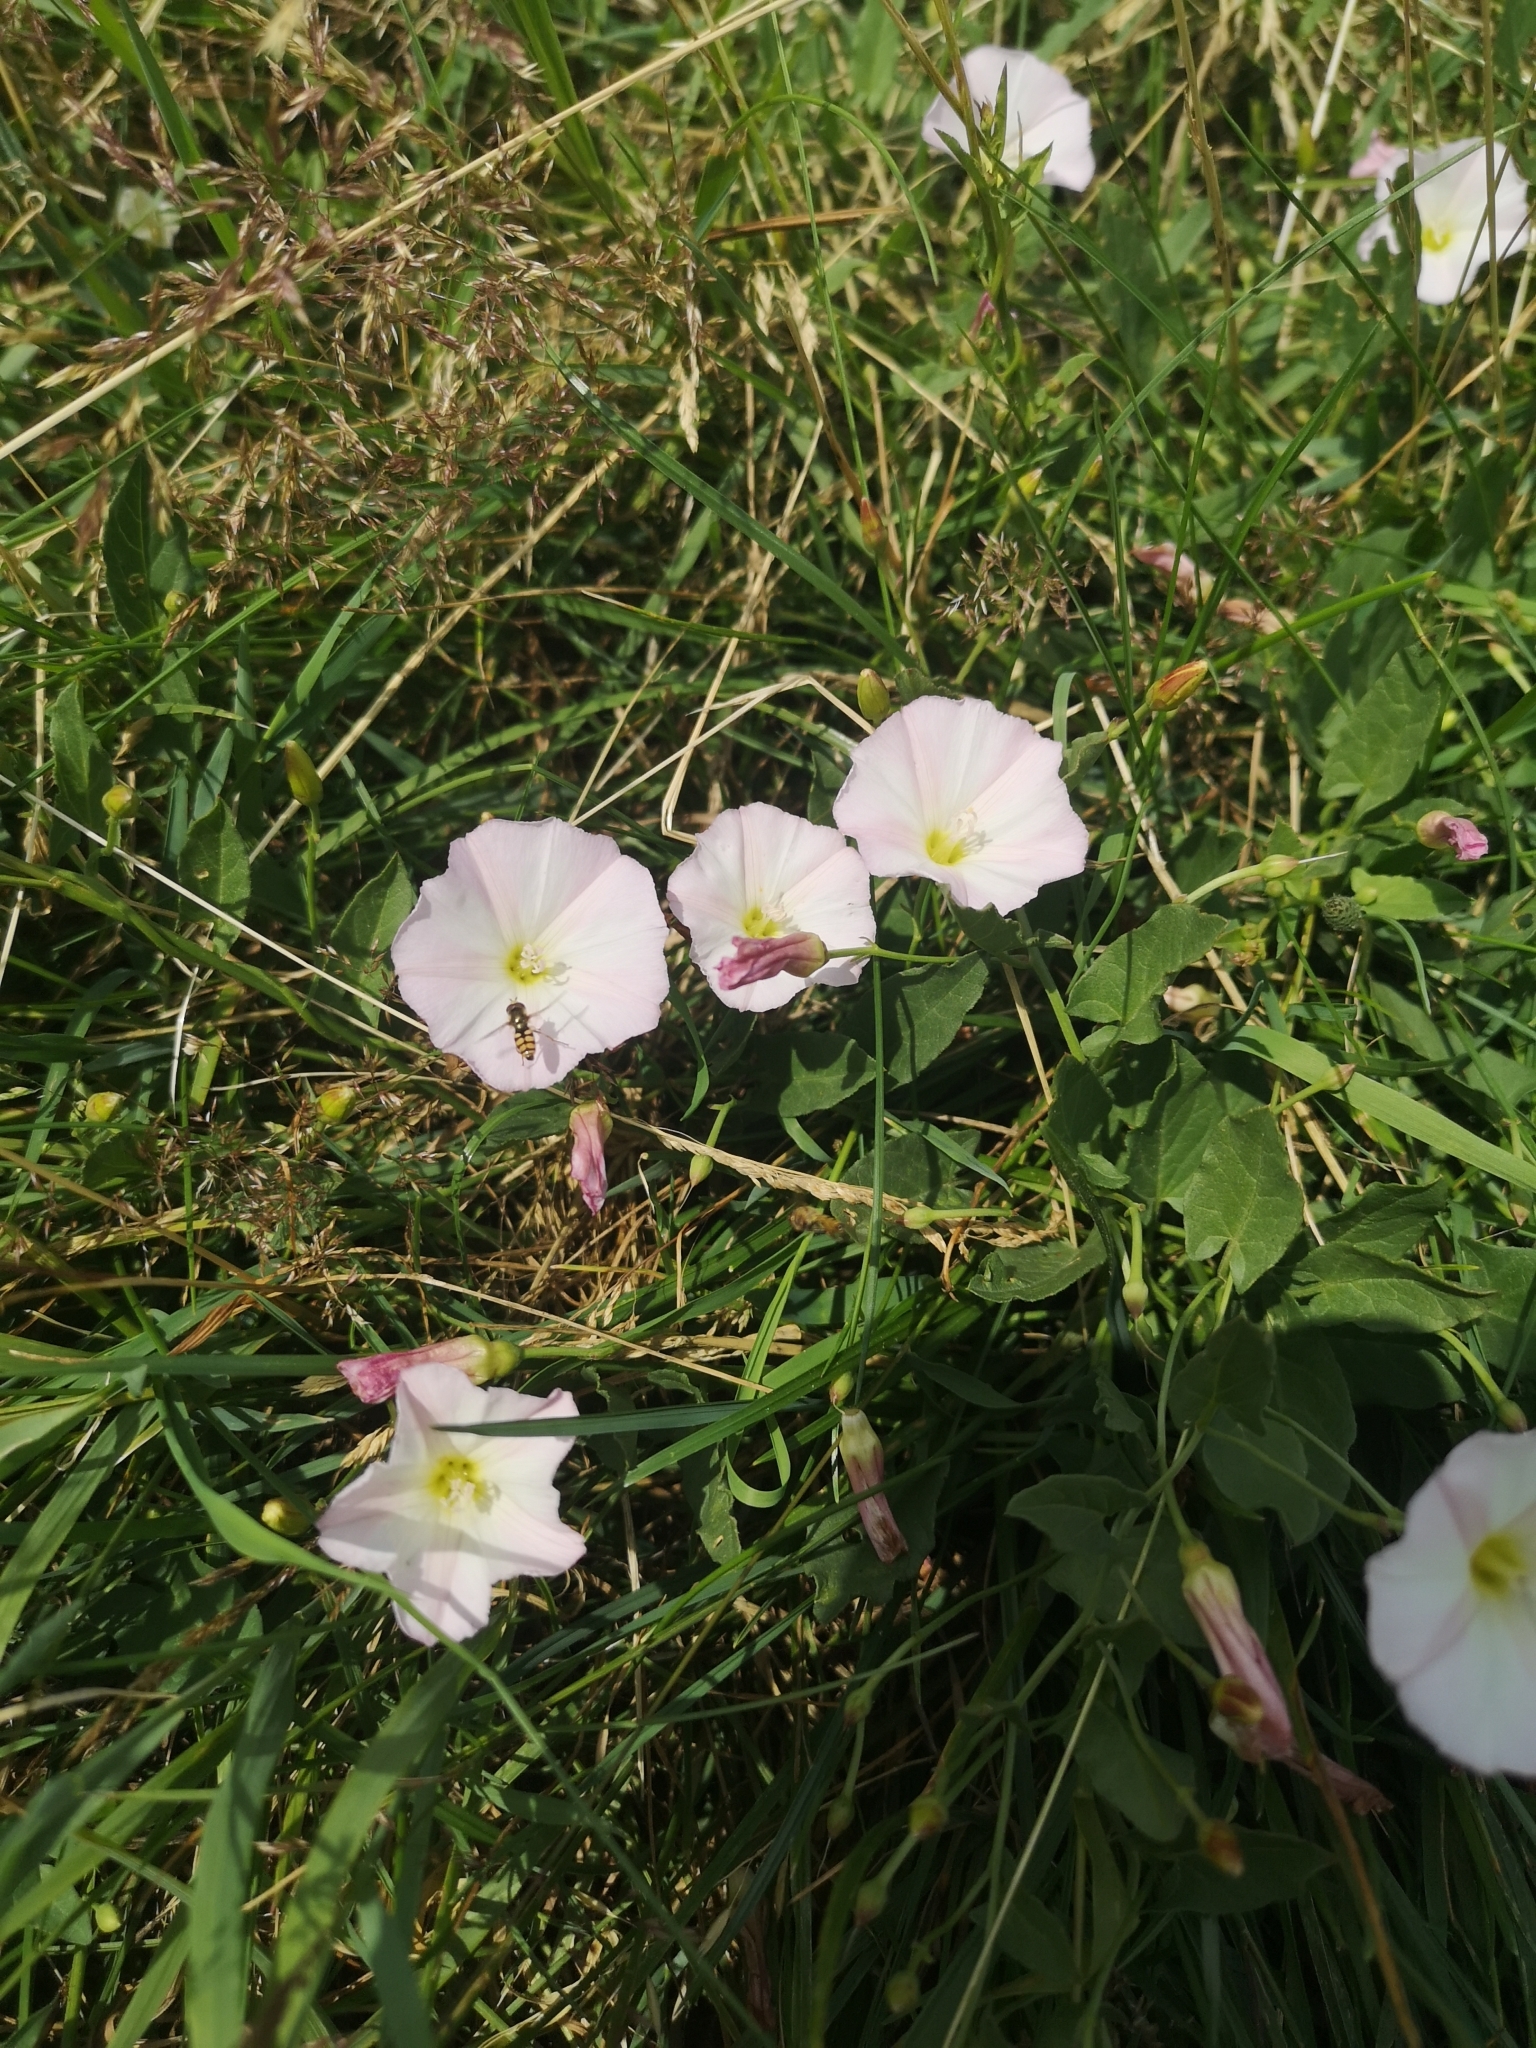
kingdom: Plantae
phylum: Tracheophyta
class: Magnoliopsida
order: Solanales
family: Convolvulaceae
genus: Convolvulus
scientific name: Convolvulus arvensis
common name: Field bindweed
